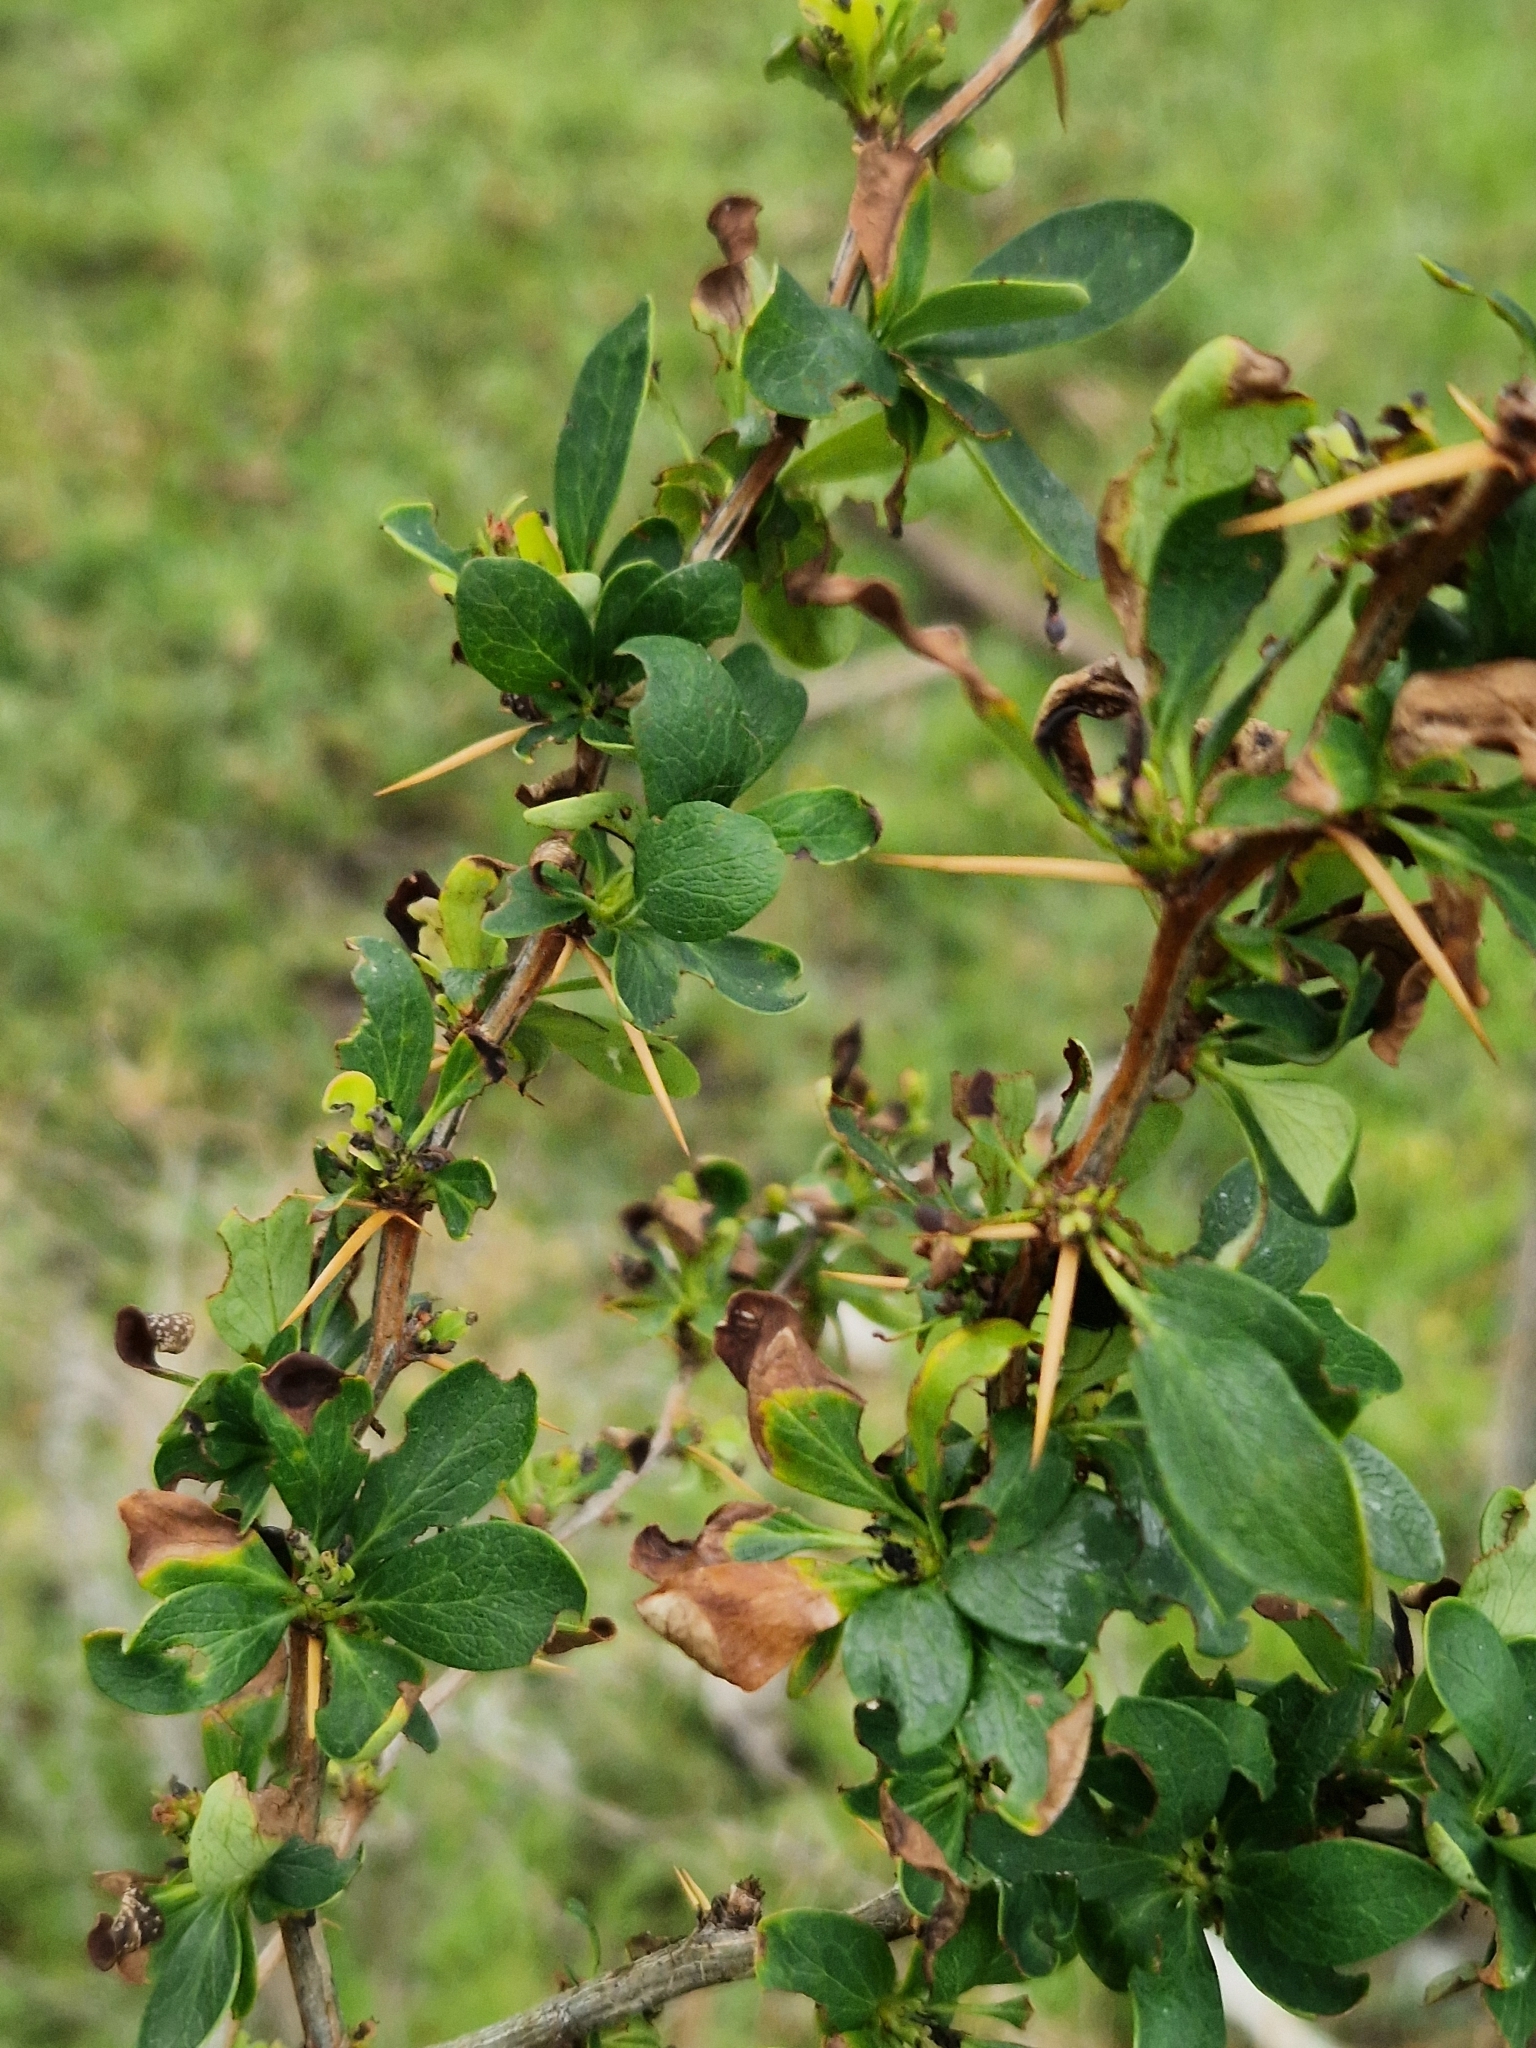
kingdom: Plantae
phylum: Tracheophyta
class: Magnoliopsida
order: Ranunculales
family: Berberidaceae
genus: Berberis
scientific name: Berberis microphylla
